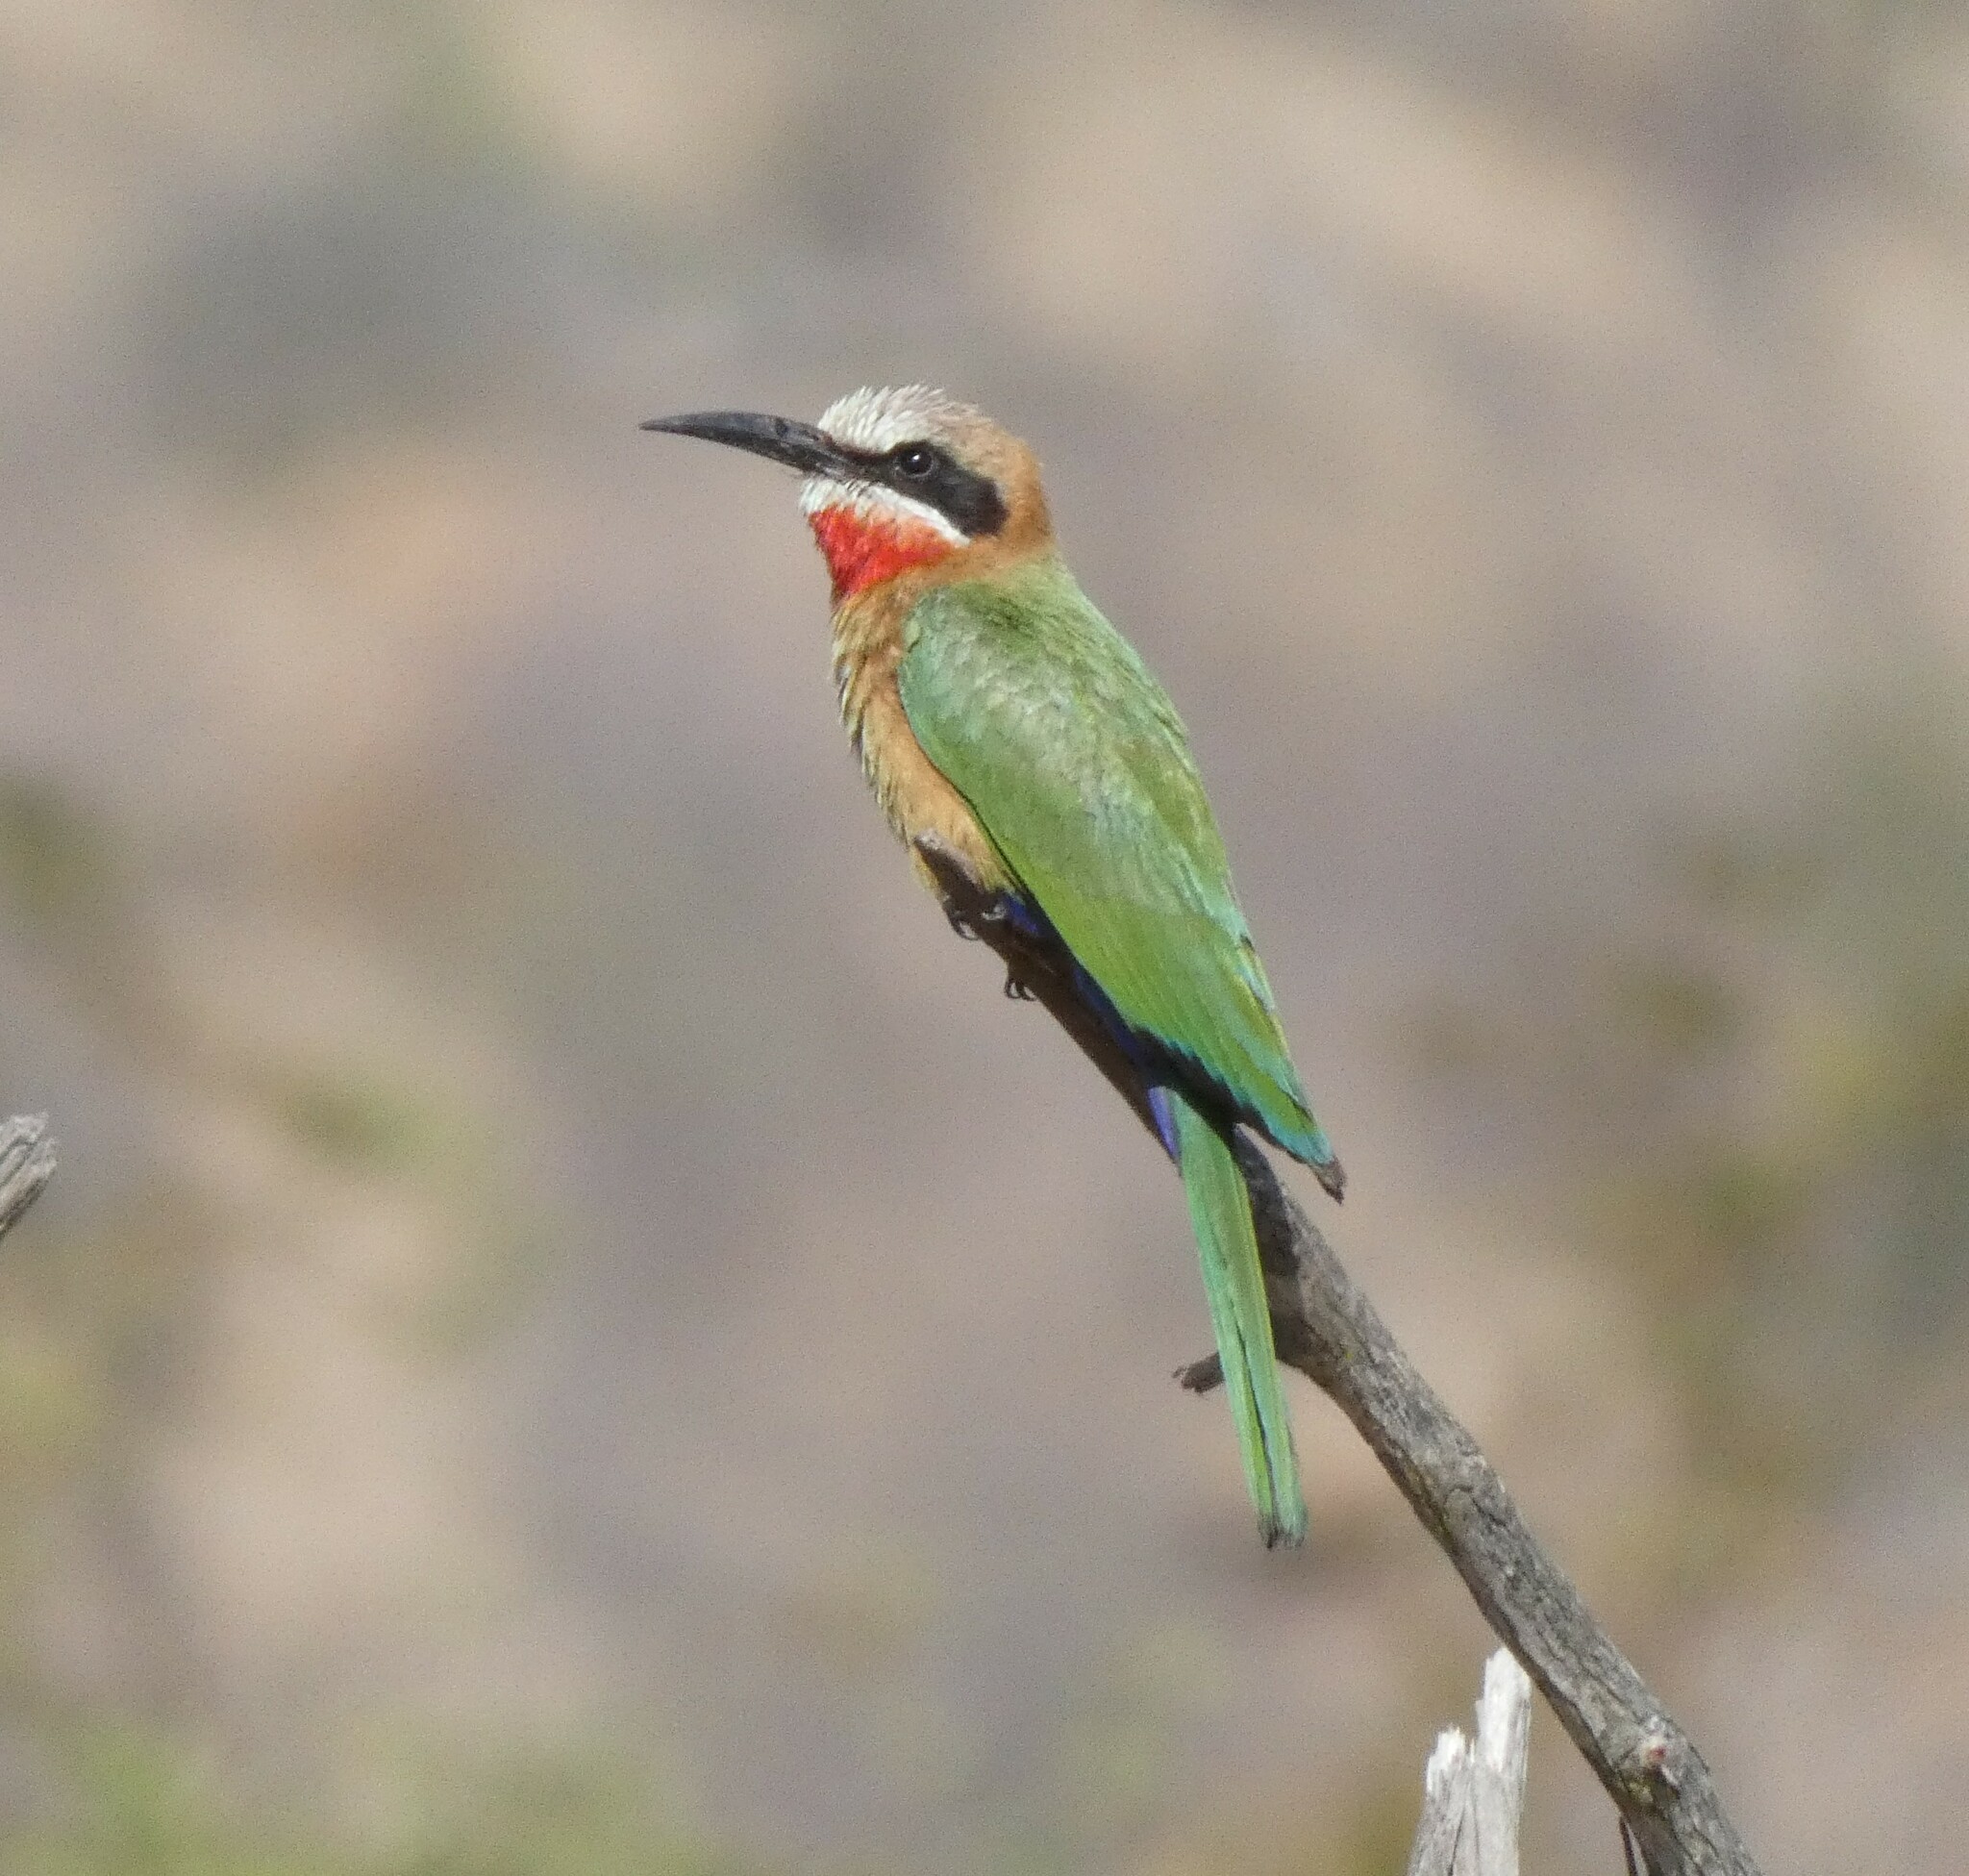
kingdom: Animalia
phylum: Chordata
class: Aves
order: Coraciiformes
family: Meropidae
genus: Merops
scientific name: Merops bullockoides
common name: White-fronted bee-eater
